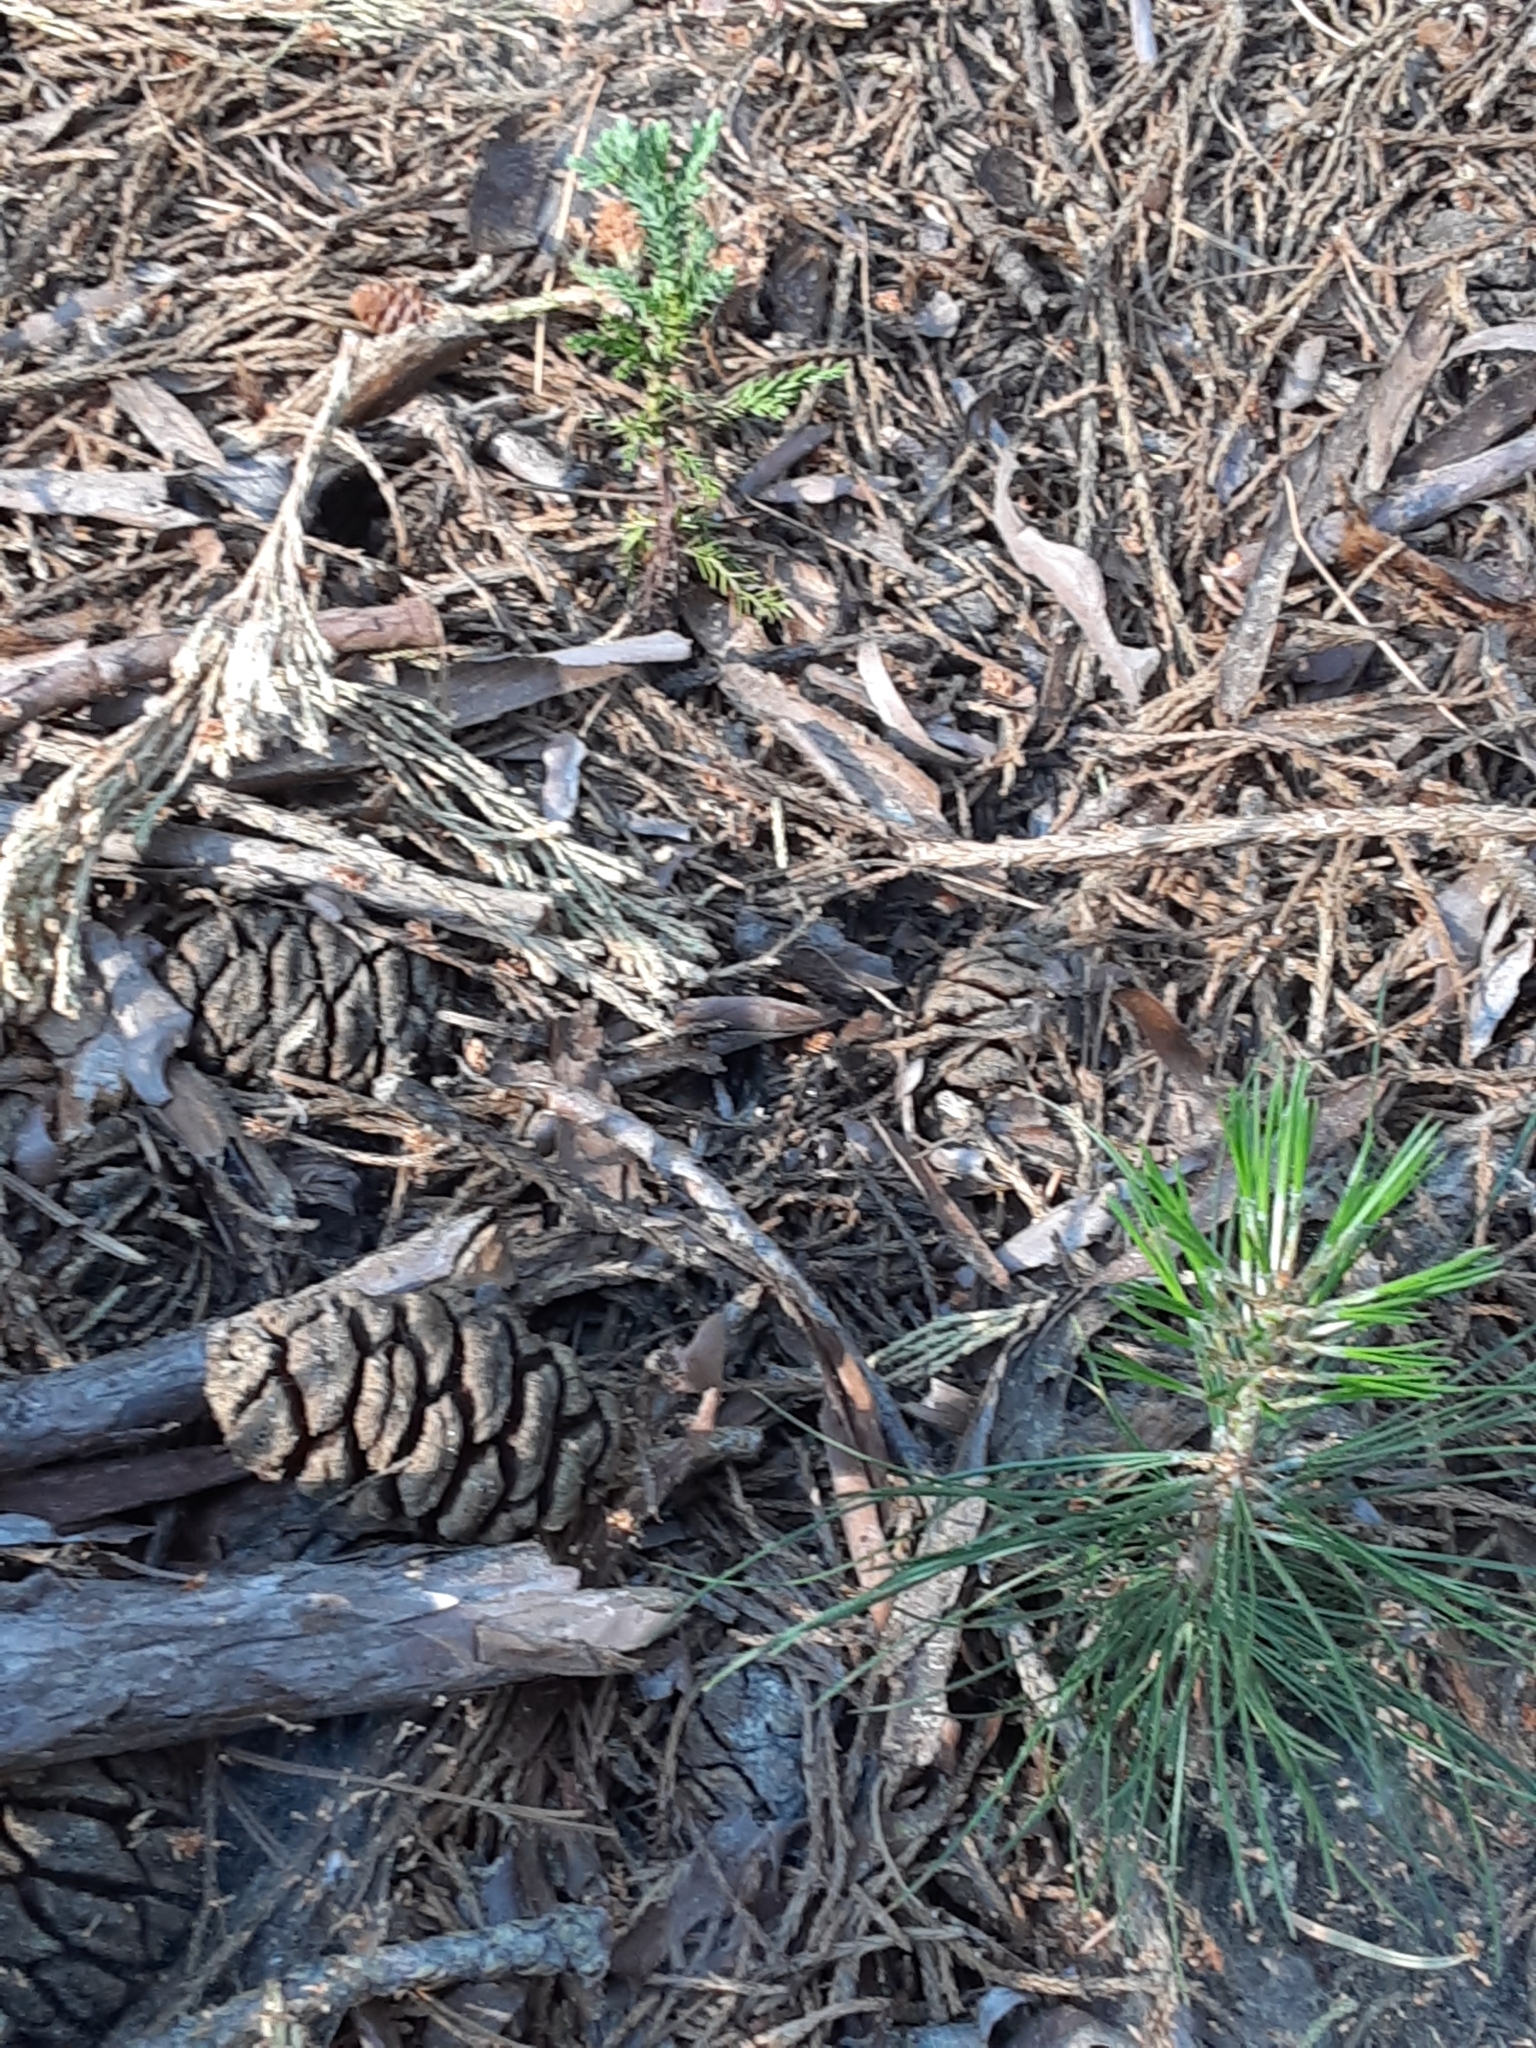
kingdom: Plantae
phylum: Tracheophyta
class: Pinopsida
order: Pinales
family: Cupressaceae
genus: Sequoiadendron
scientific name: Sequoiadendron giganteum
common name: Wellingtonia
